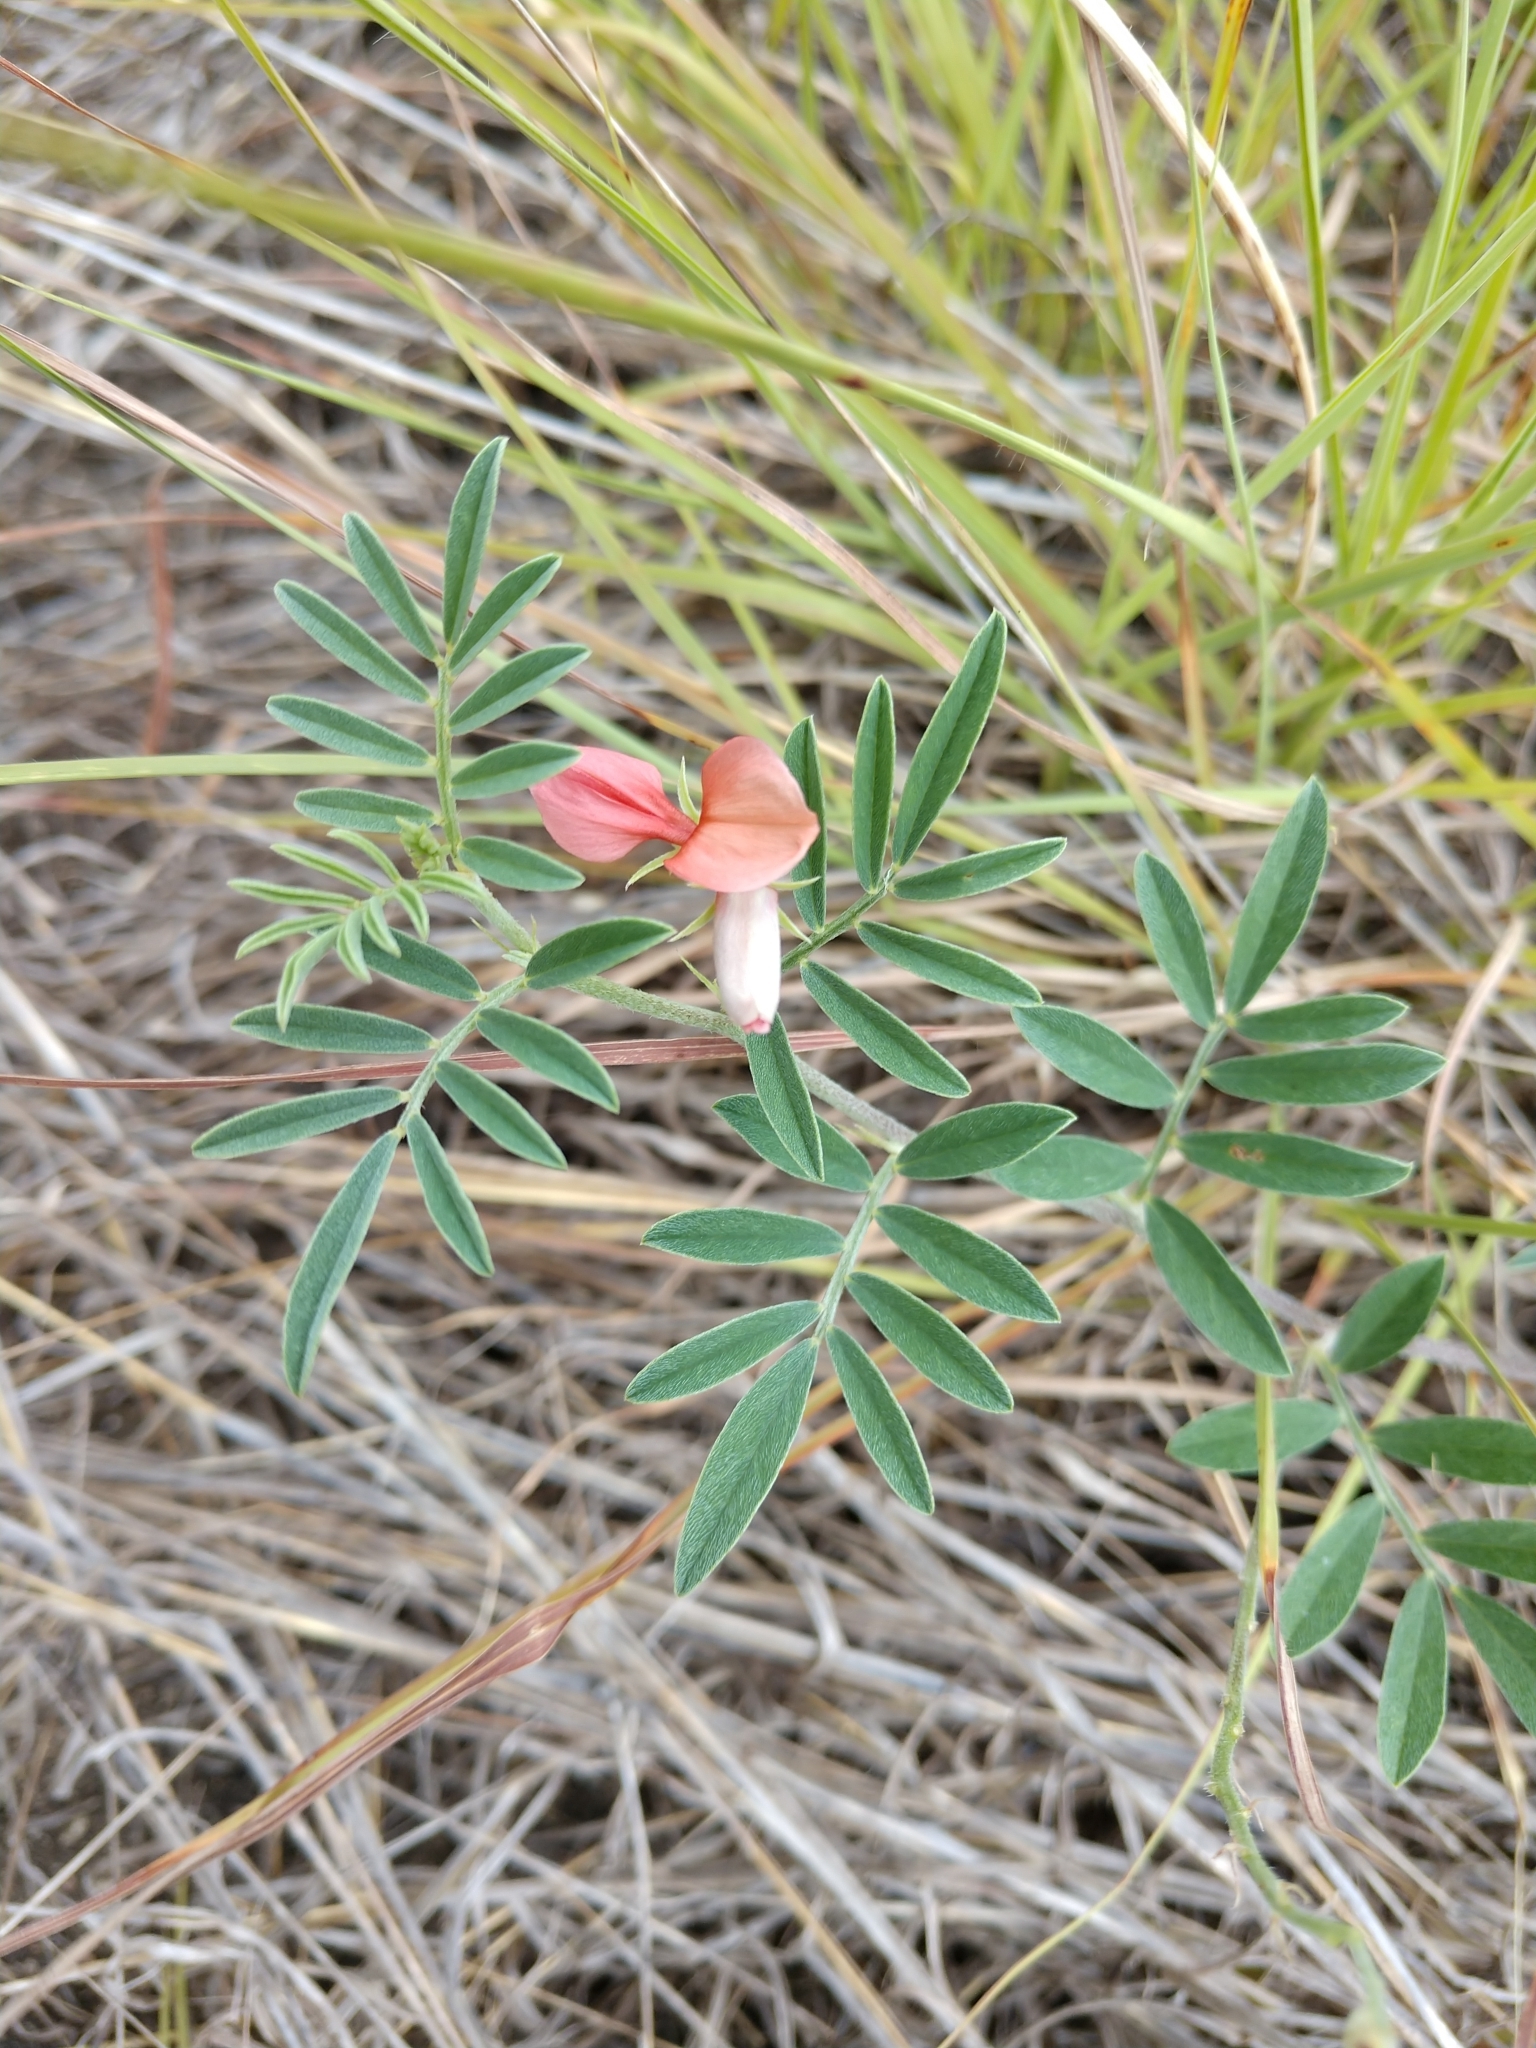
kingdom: Plantae
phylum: Tracheophyta
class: Magnoliopsida
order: Fabales
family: Fabaceae
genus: Indigofera
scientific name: Indigofera miniata
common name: Coast indigo
